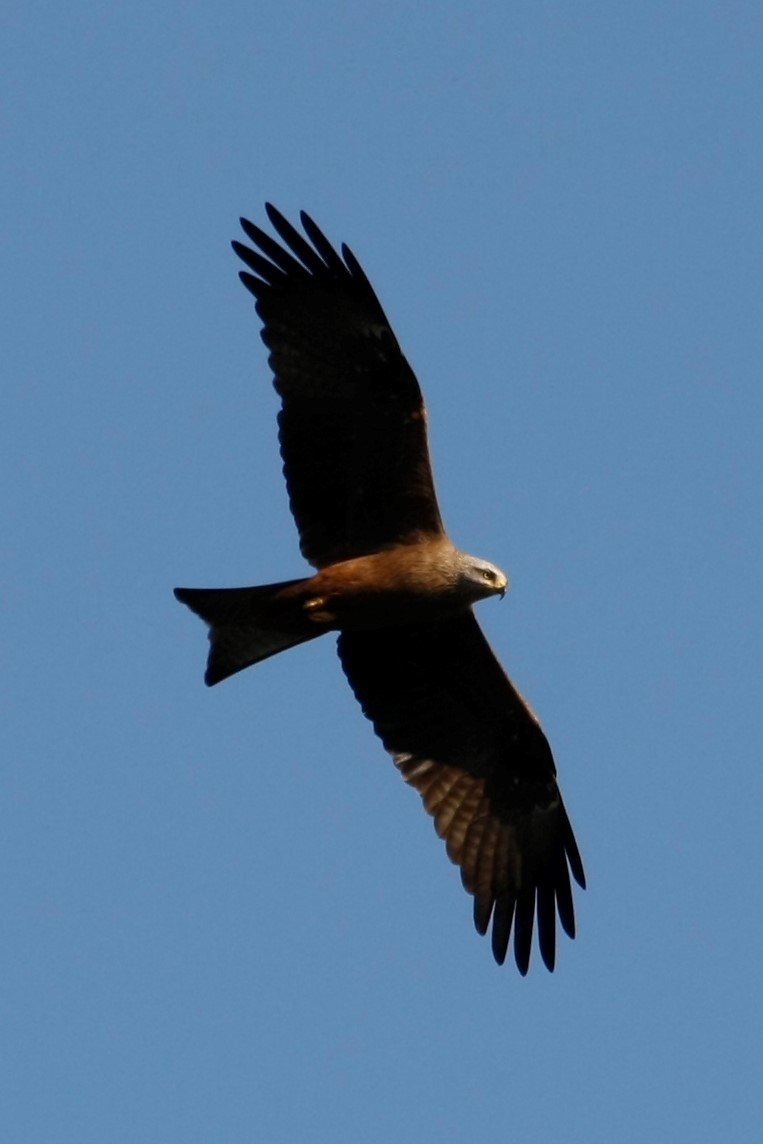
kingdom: Animalia
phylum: Chordata
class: Aves
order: Accipitriformes
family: Accipitridae
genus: Milvus
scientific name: Milvus migrans
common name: Black kite
